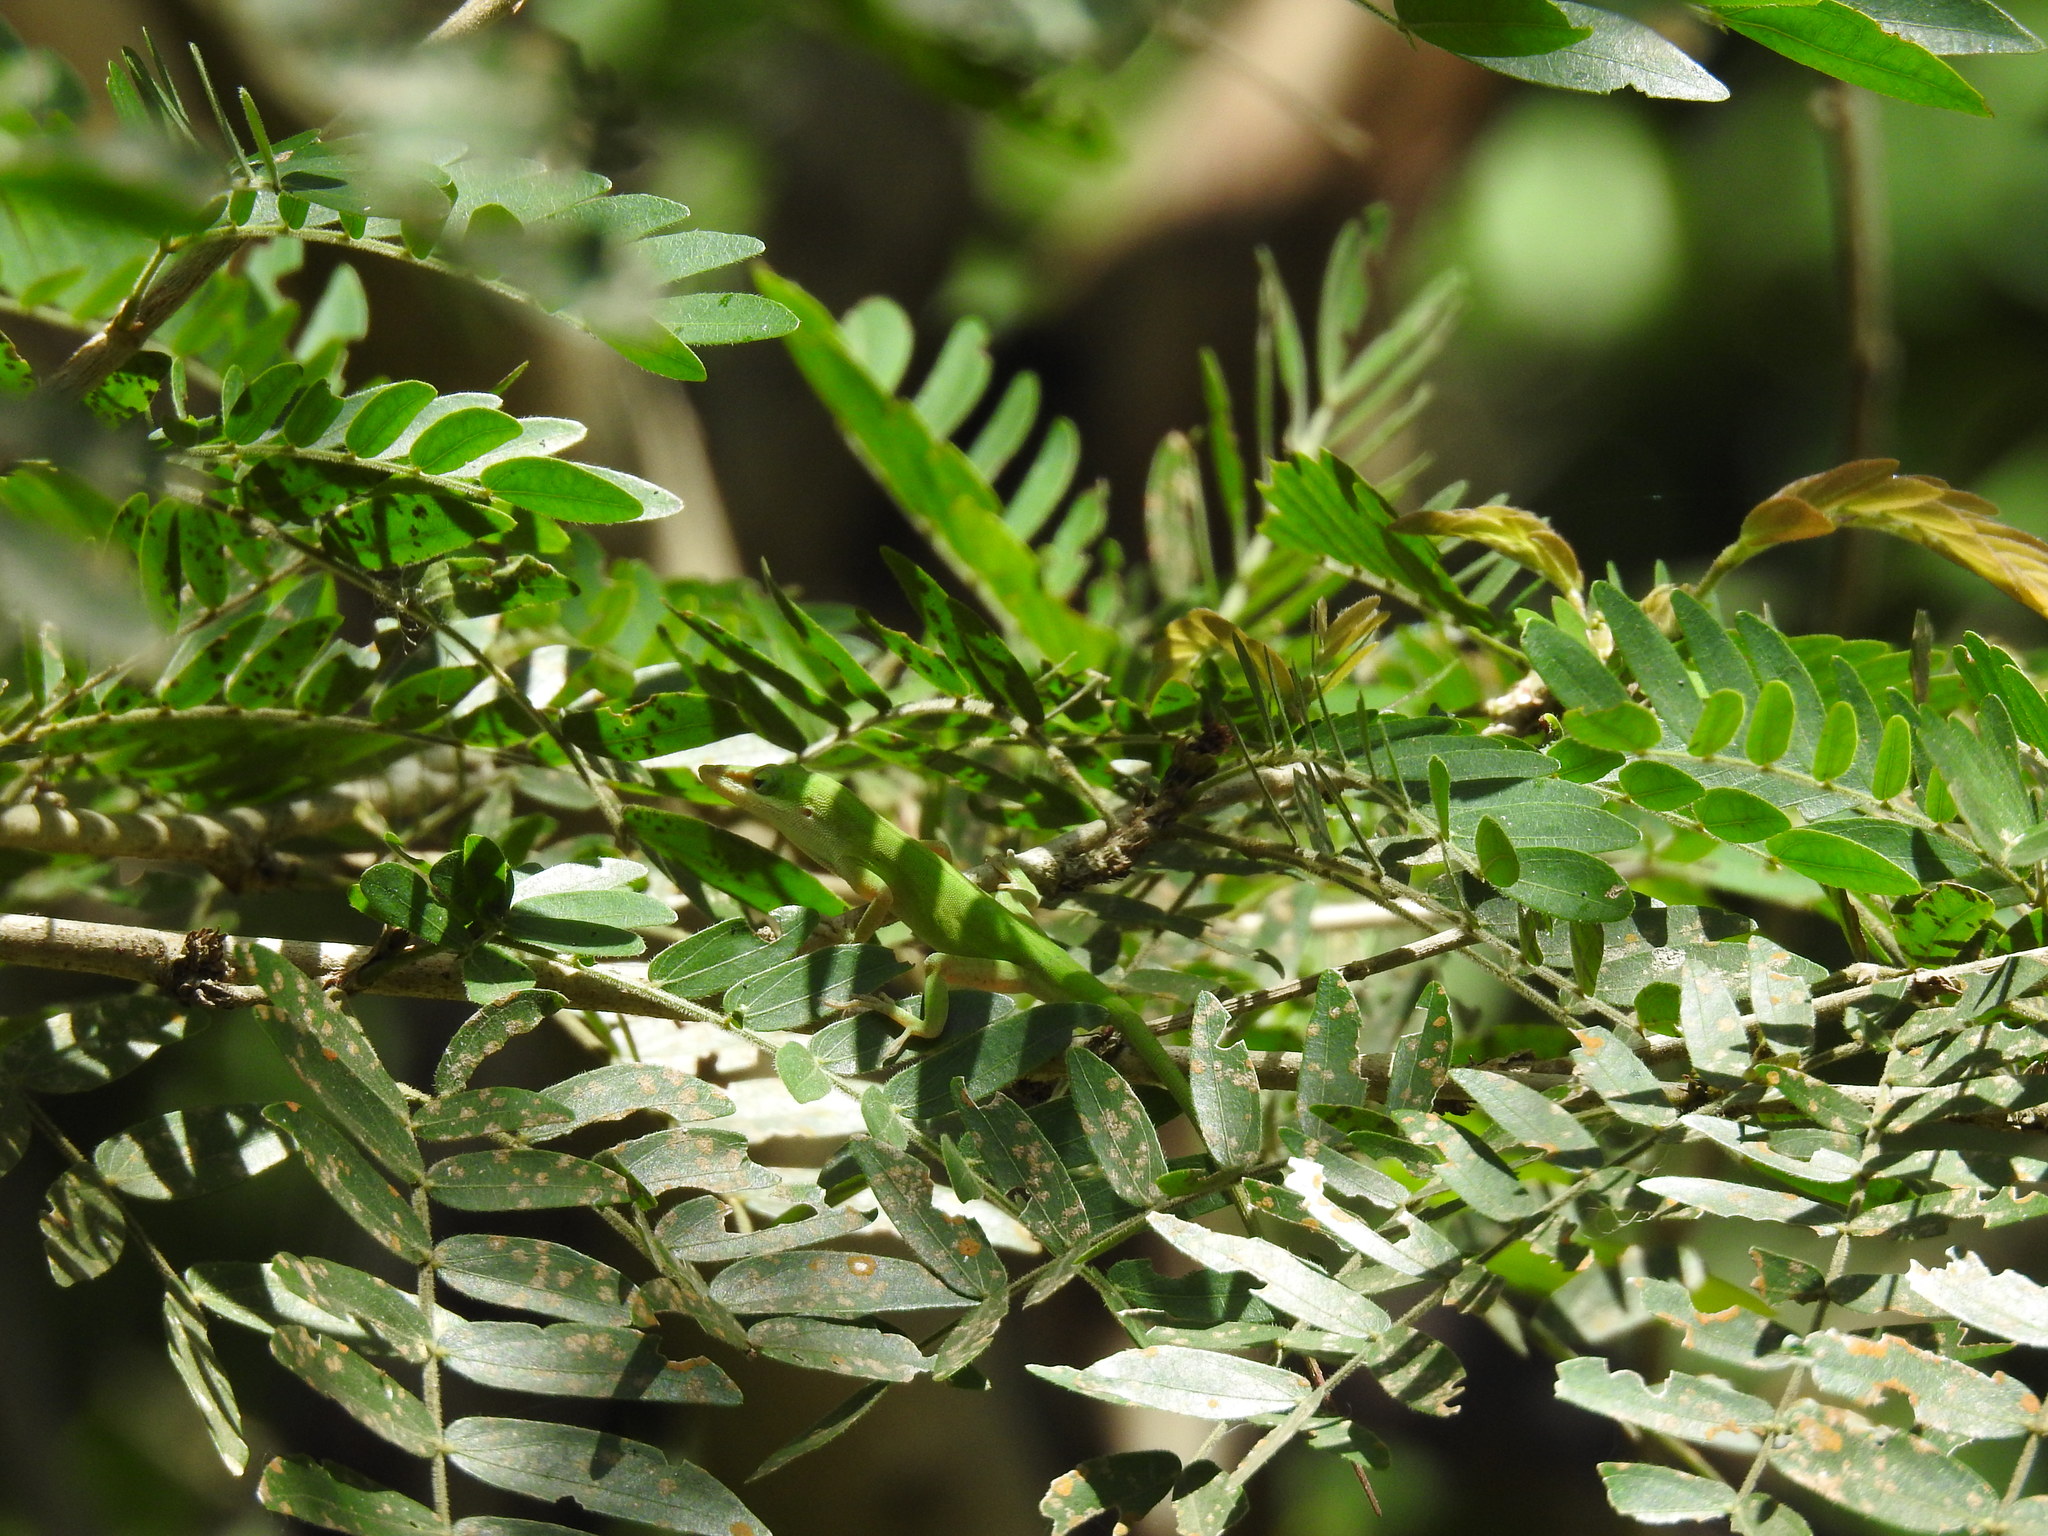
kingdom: Animalia
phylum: Chordata
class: Squamata
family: Dactyloidae
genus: Anolis
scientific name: Anolis carolinensis
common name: Green anole
